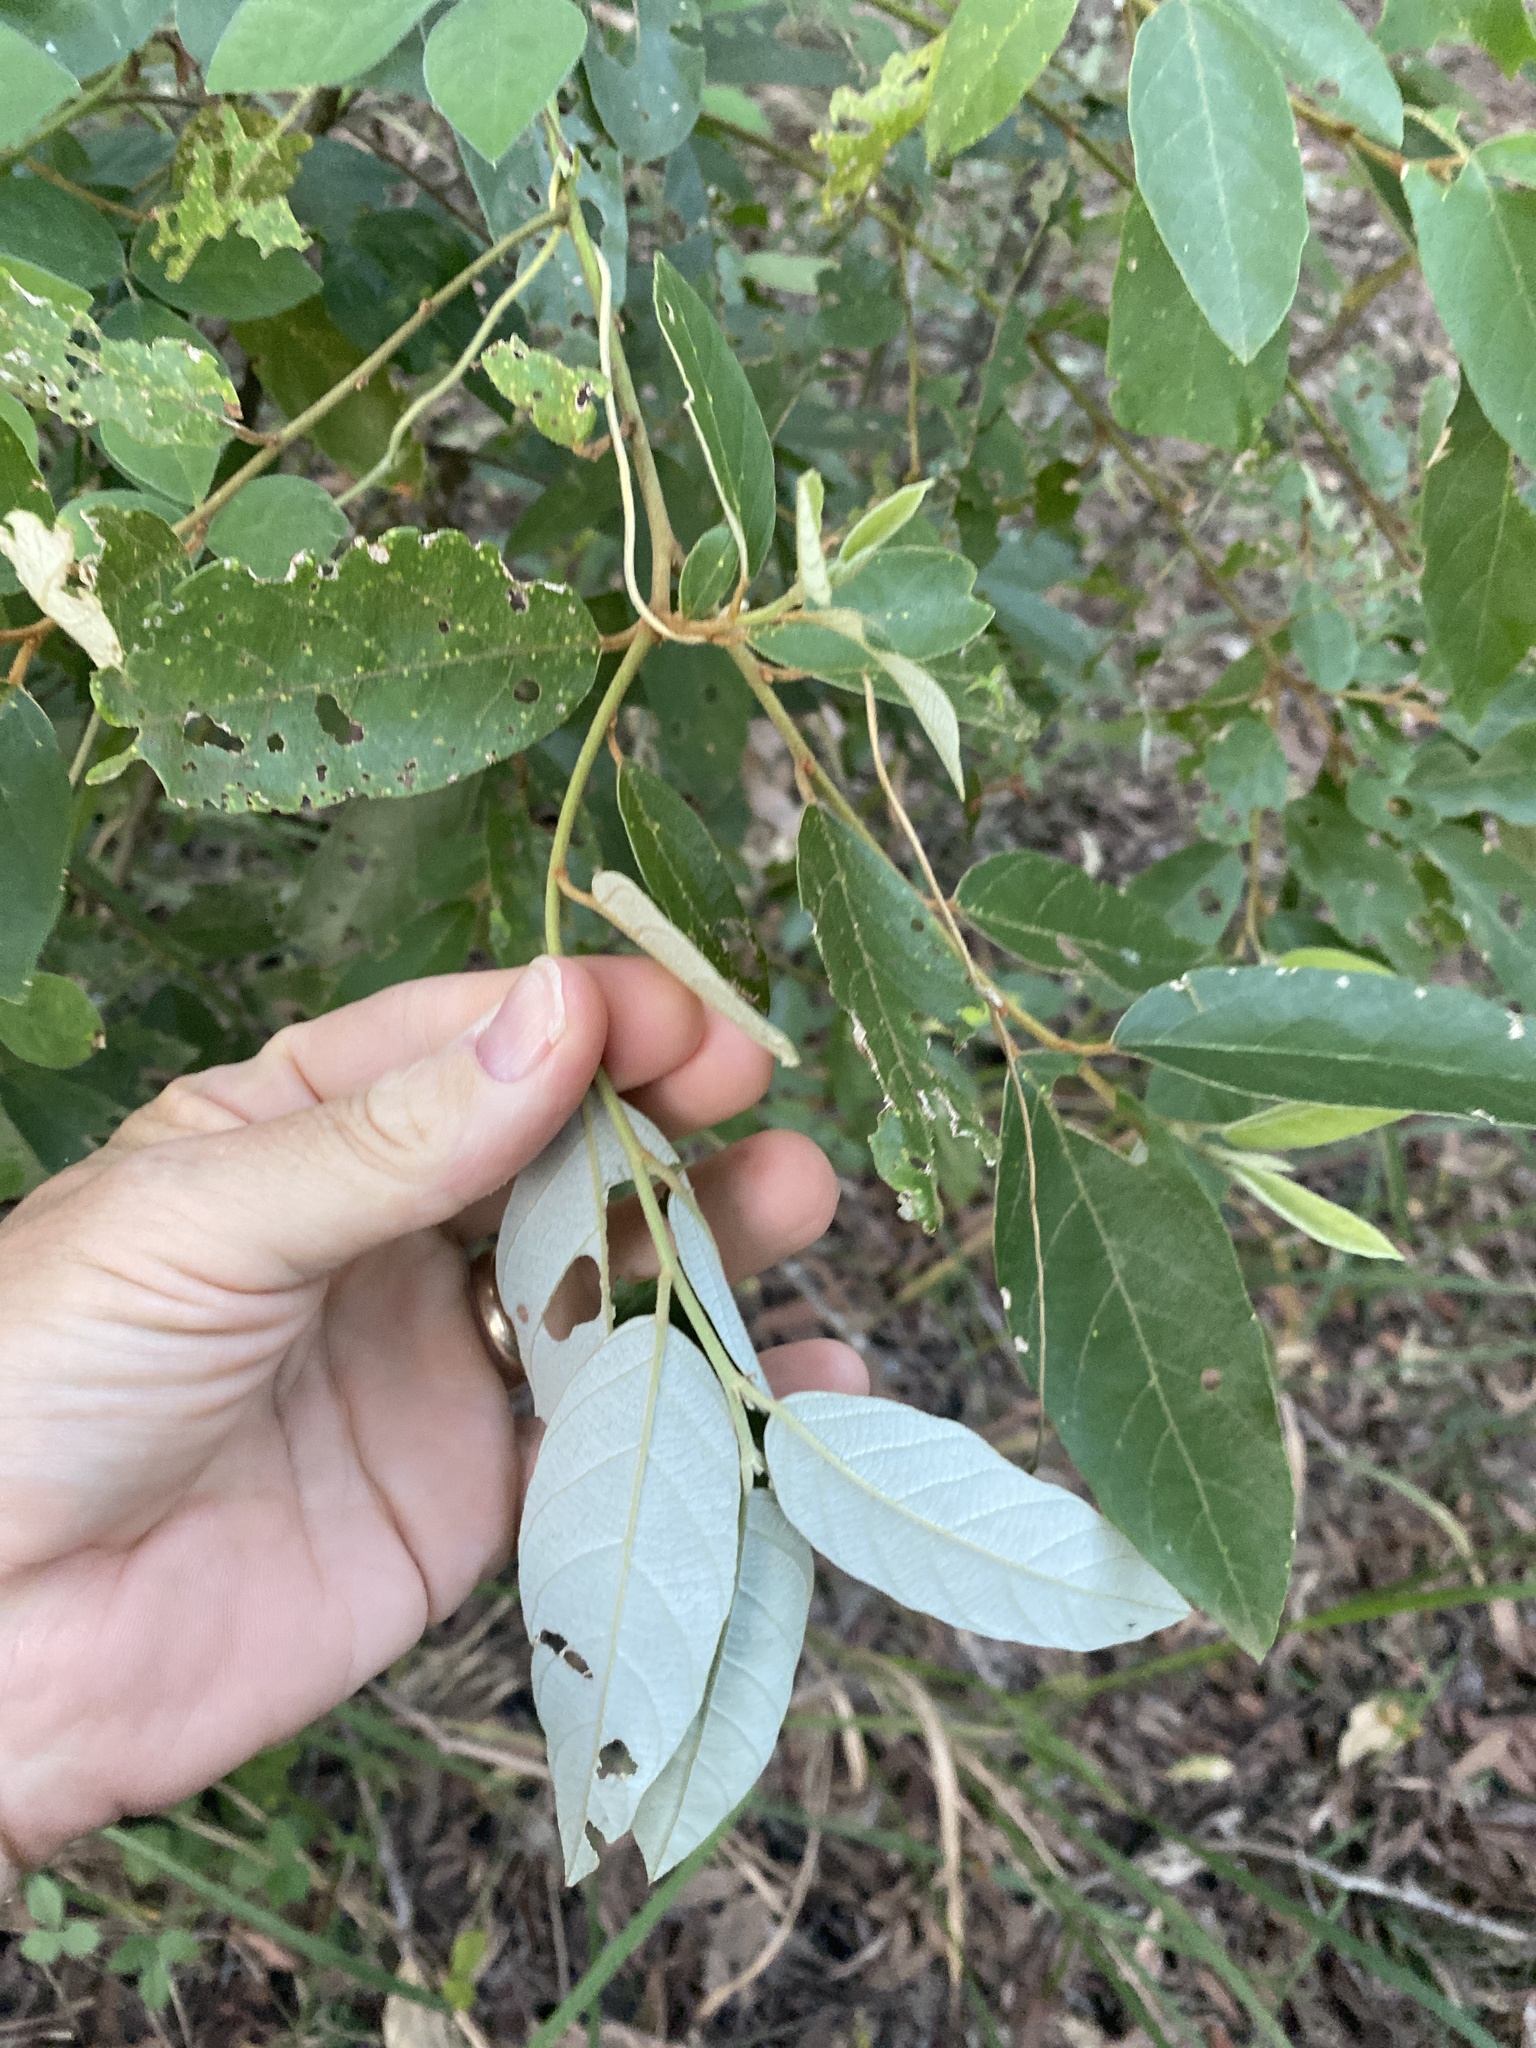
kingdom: Plantae
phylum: Tracheophyta
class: Magnoliopsida
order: Rosales
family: Rhamnaceae
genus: Alphitonia
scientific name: Alphitonia excelsa
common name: Red ash
